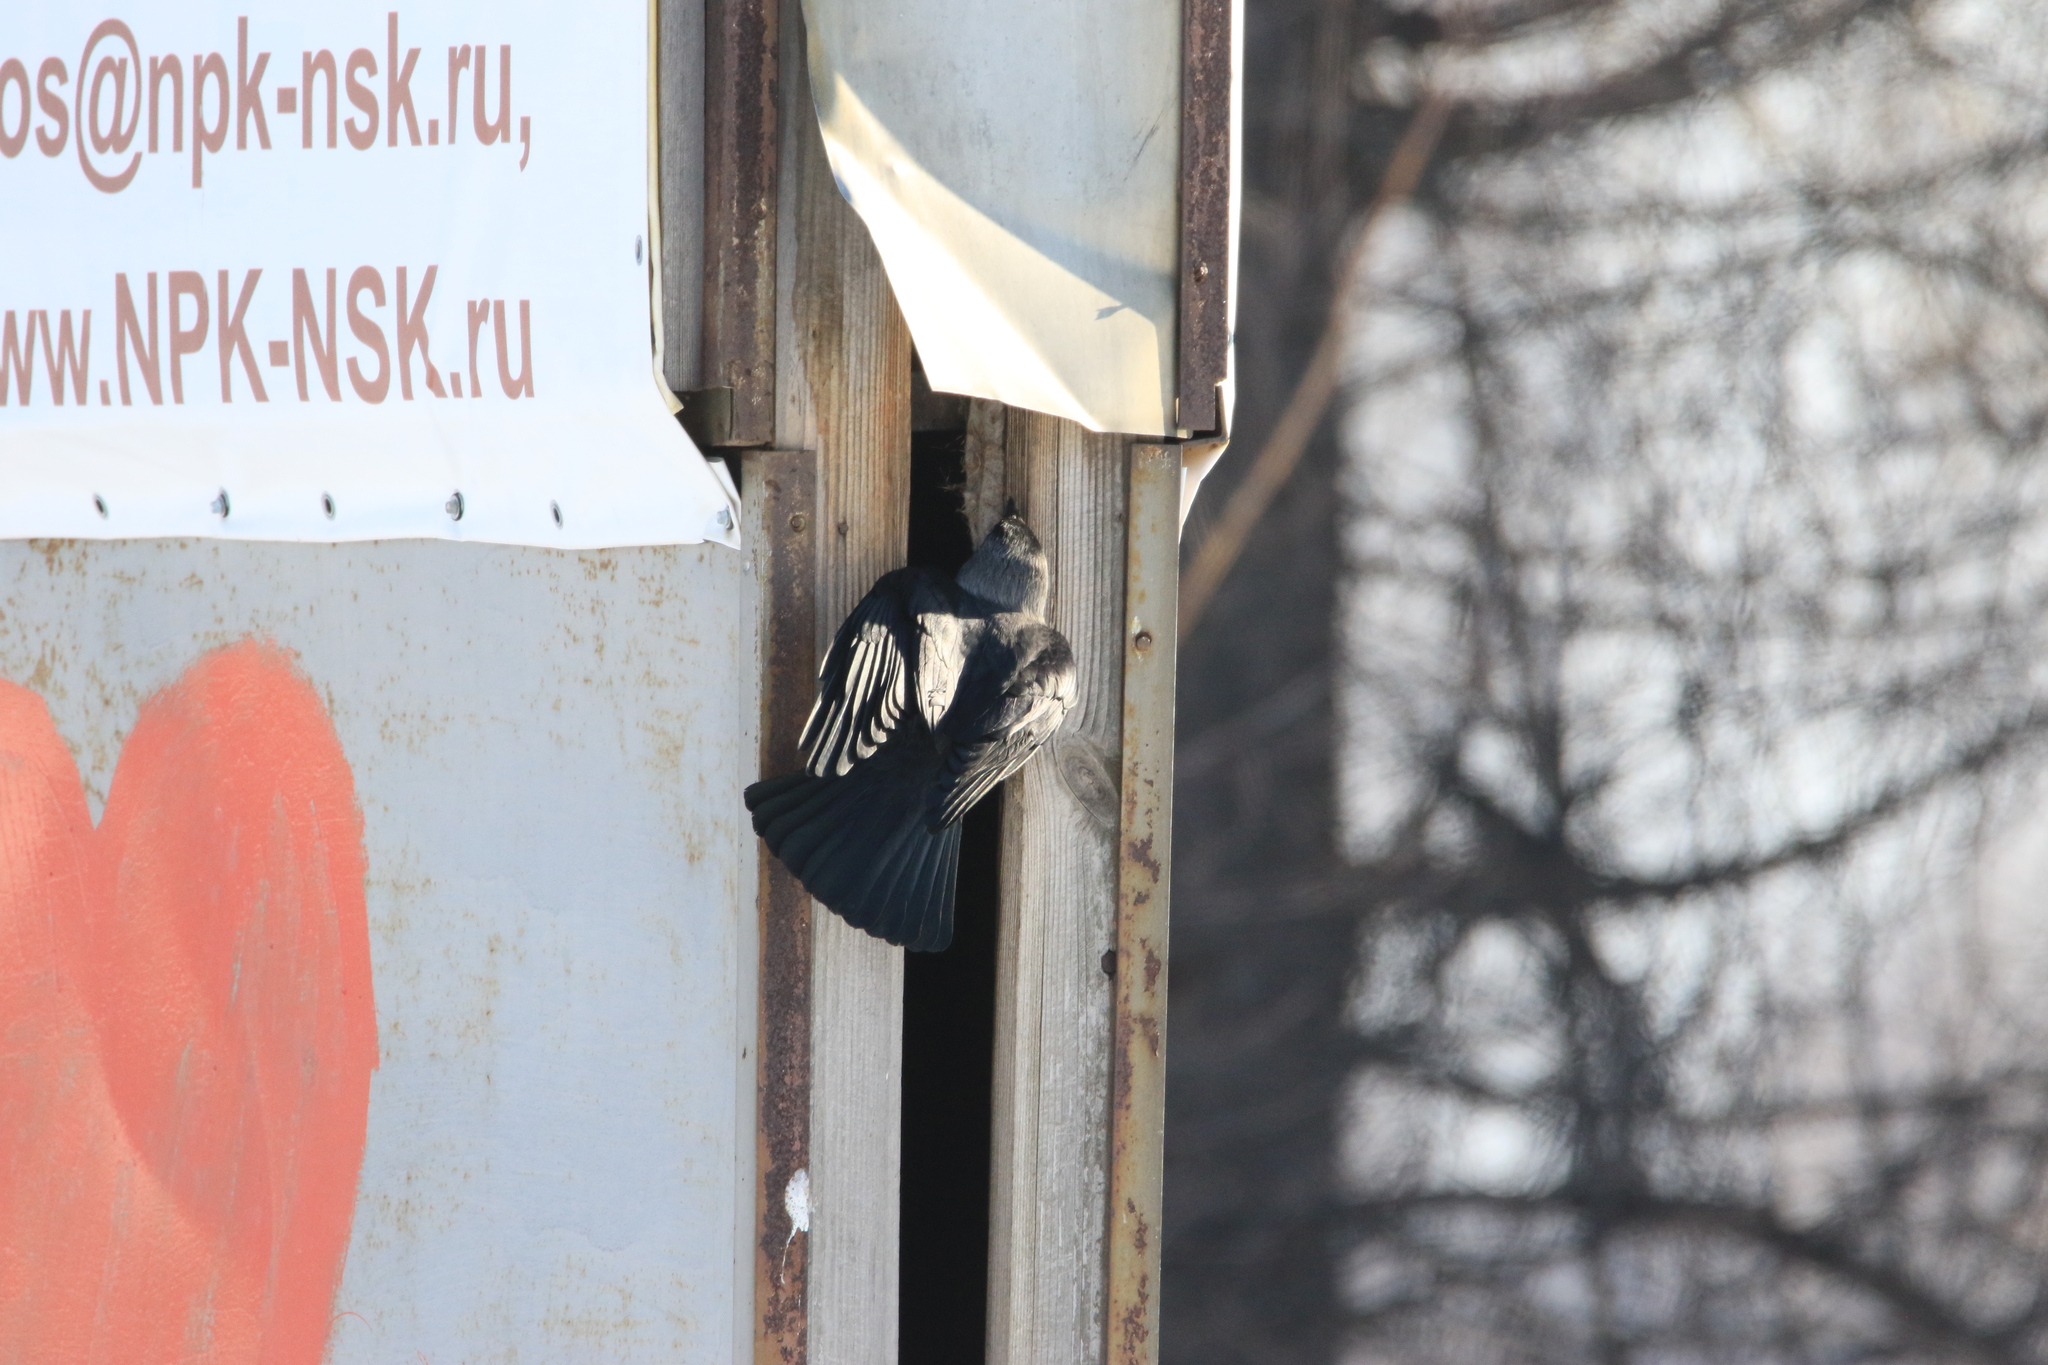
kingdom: Animalia
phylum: Chordata
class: Aves
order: Passeriformes
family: Corvidae
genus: Coloeus
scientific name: Coloeus monedula
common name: Western jackdaw
